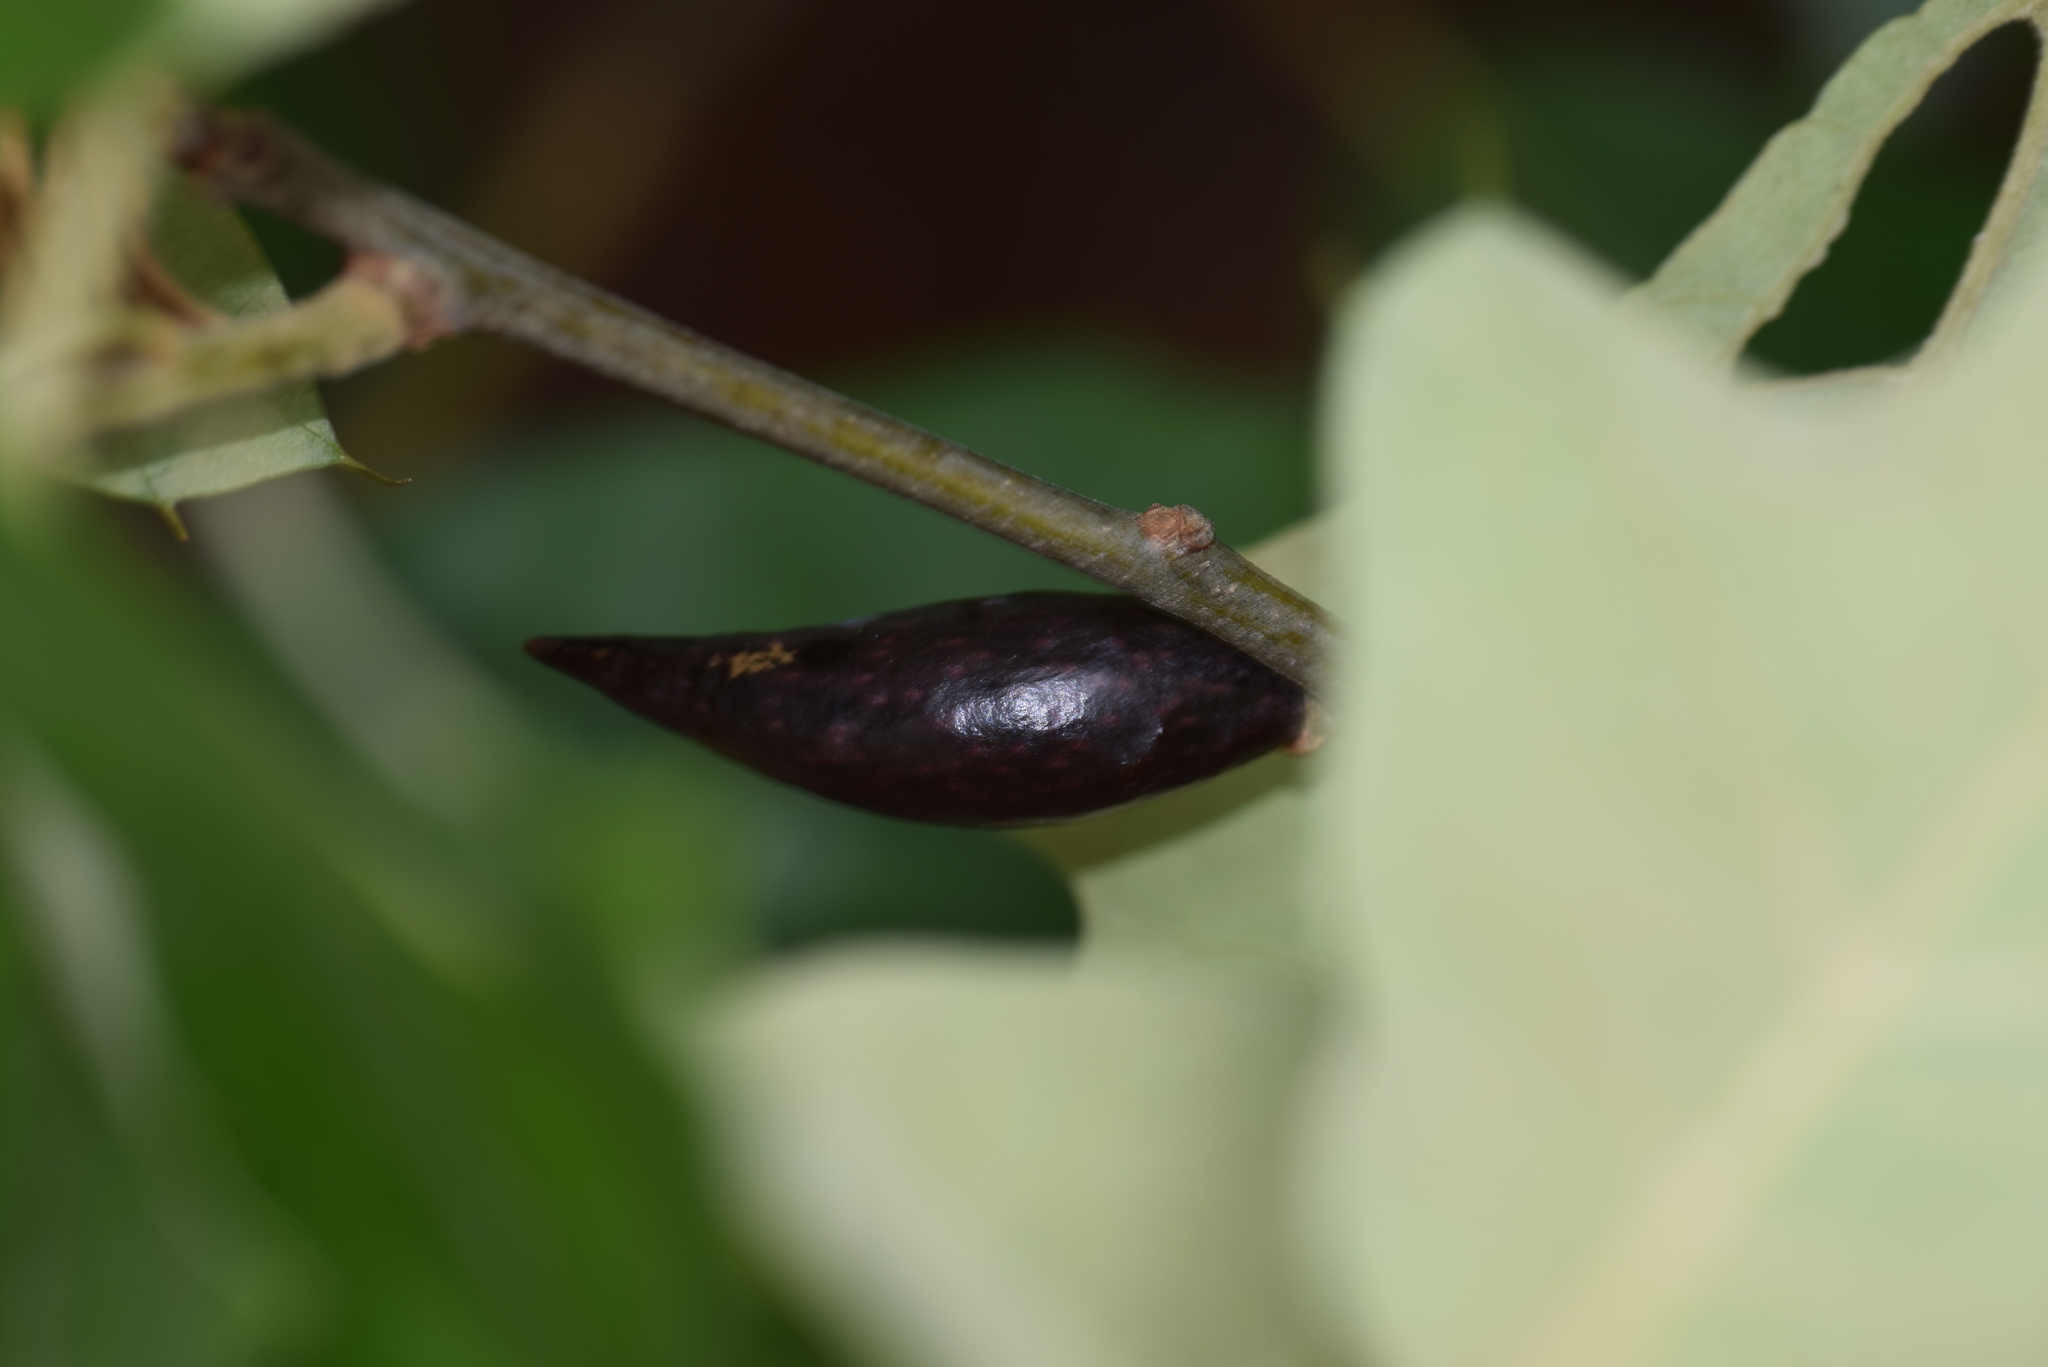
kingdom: Animalia
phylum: Arthropoda
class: Insecta
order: Hymenoptera
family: Cynipidae
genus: Amphibolips
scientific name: Amphibolips
